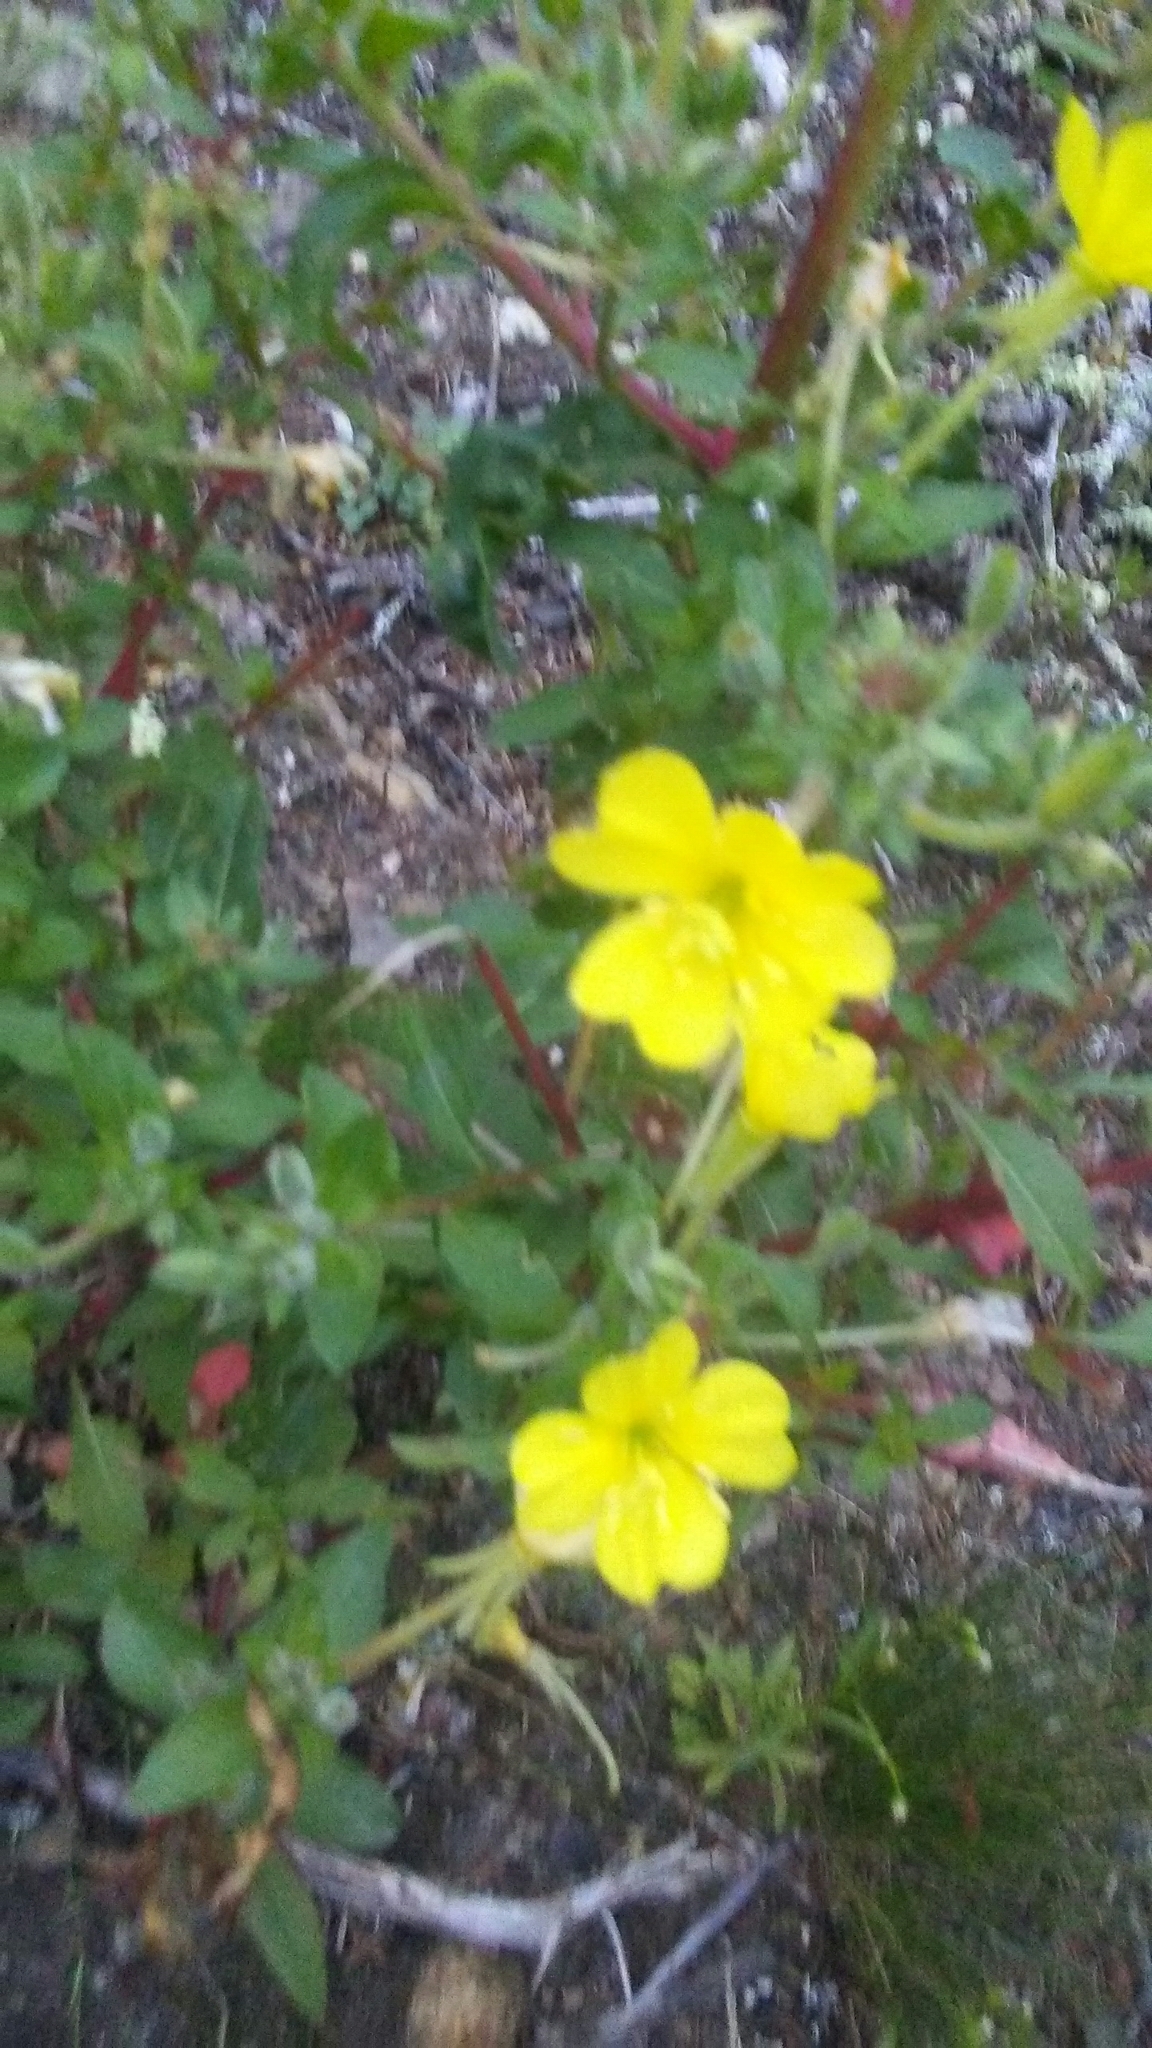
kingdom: Plantae
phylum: Tracheophyta
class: Magnoliopsida
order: Myrtales
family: Onagraceae
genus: Oenothera
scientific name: Oenothera
